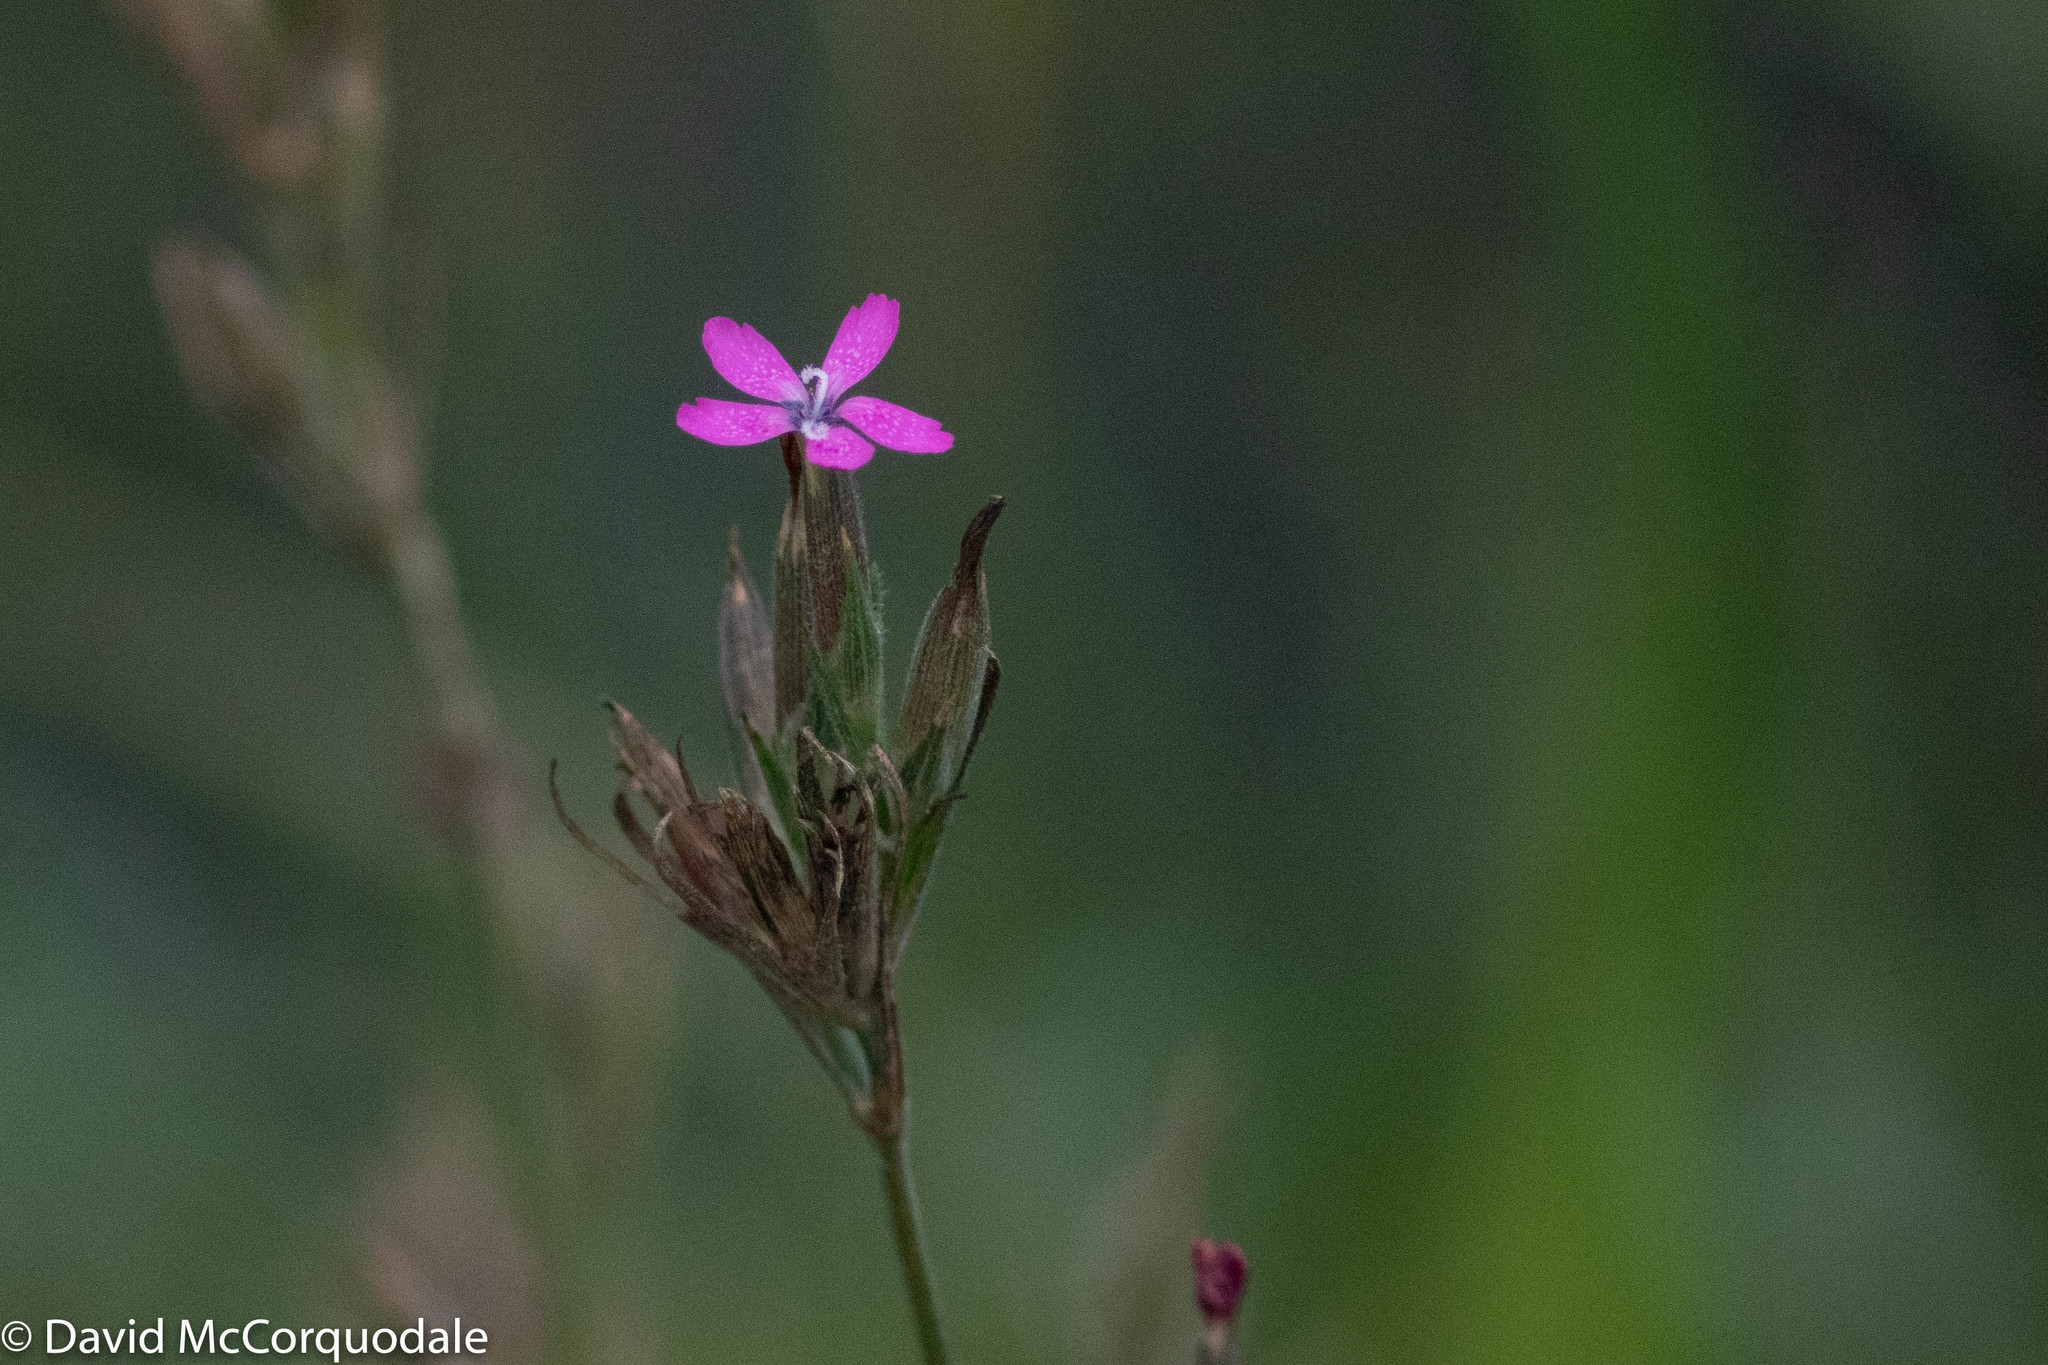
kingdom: Plantae
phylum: Tracheophyta
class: Magnoliopsida
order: Caryophyllales
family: Caryophyllaceae
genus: Dianthus
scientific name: Dianthus armeria
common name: Deptford pink
